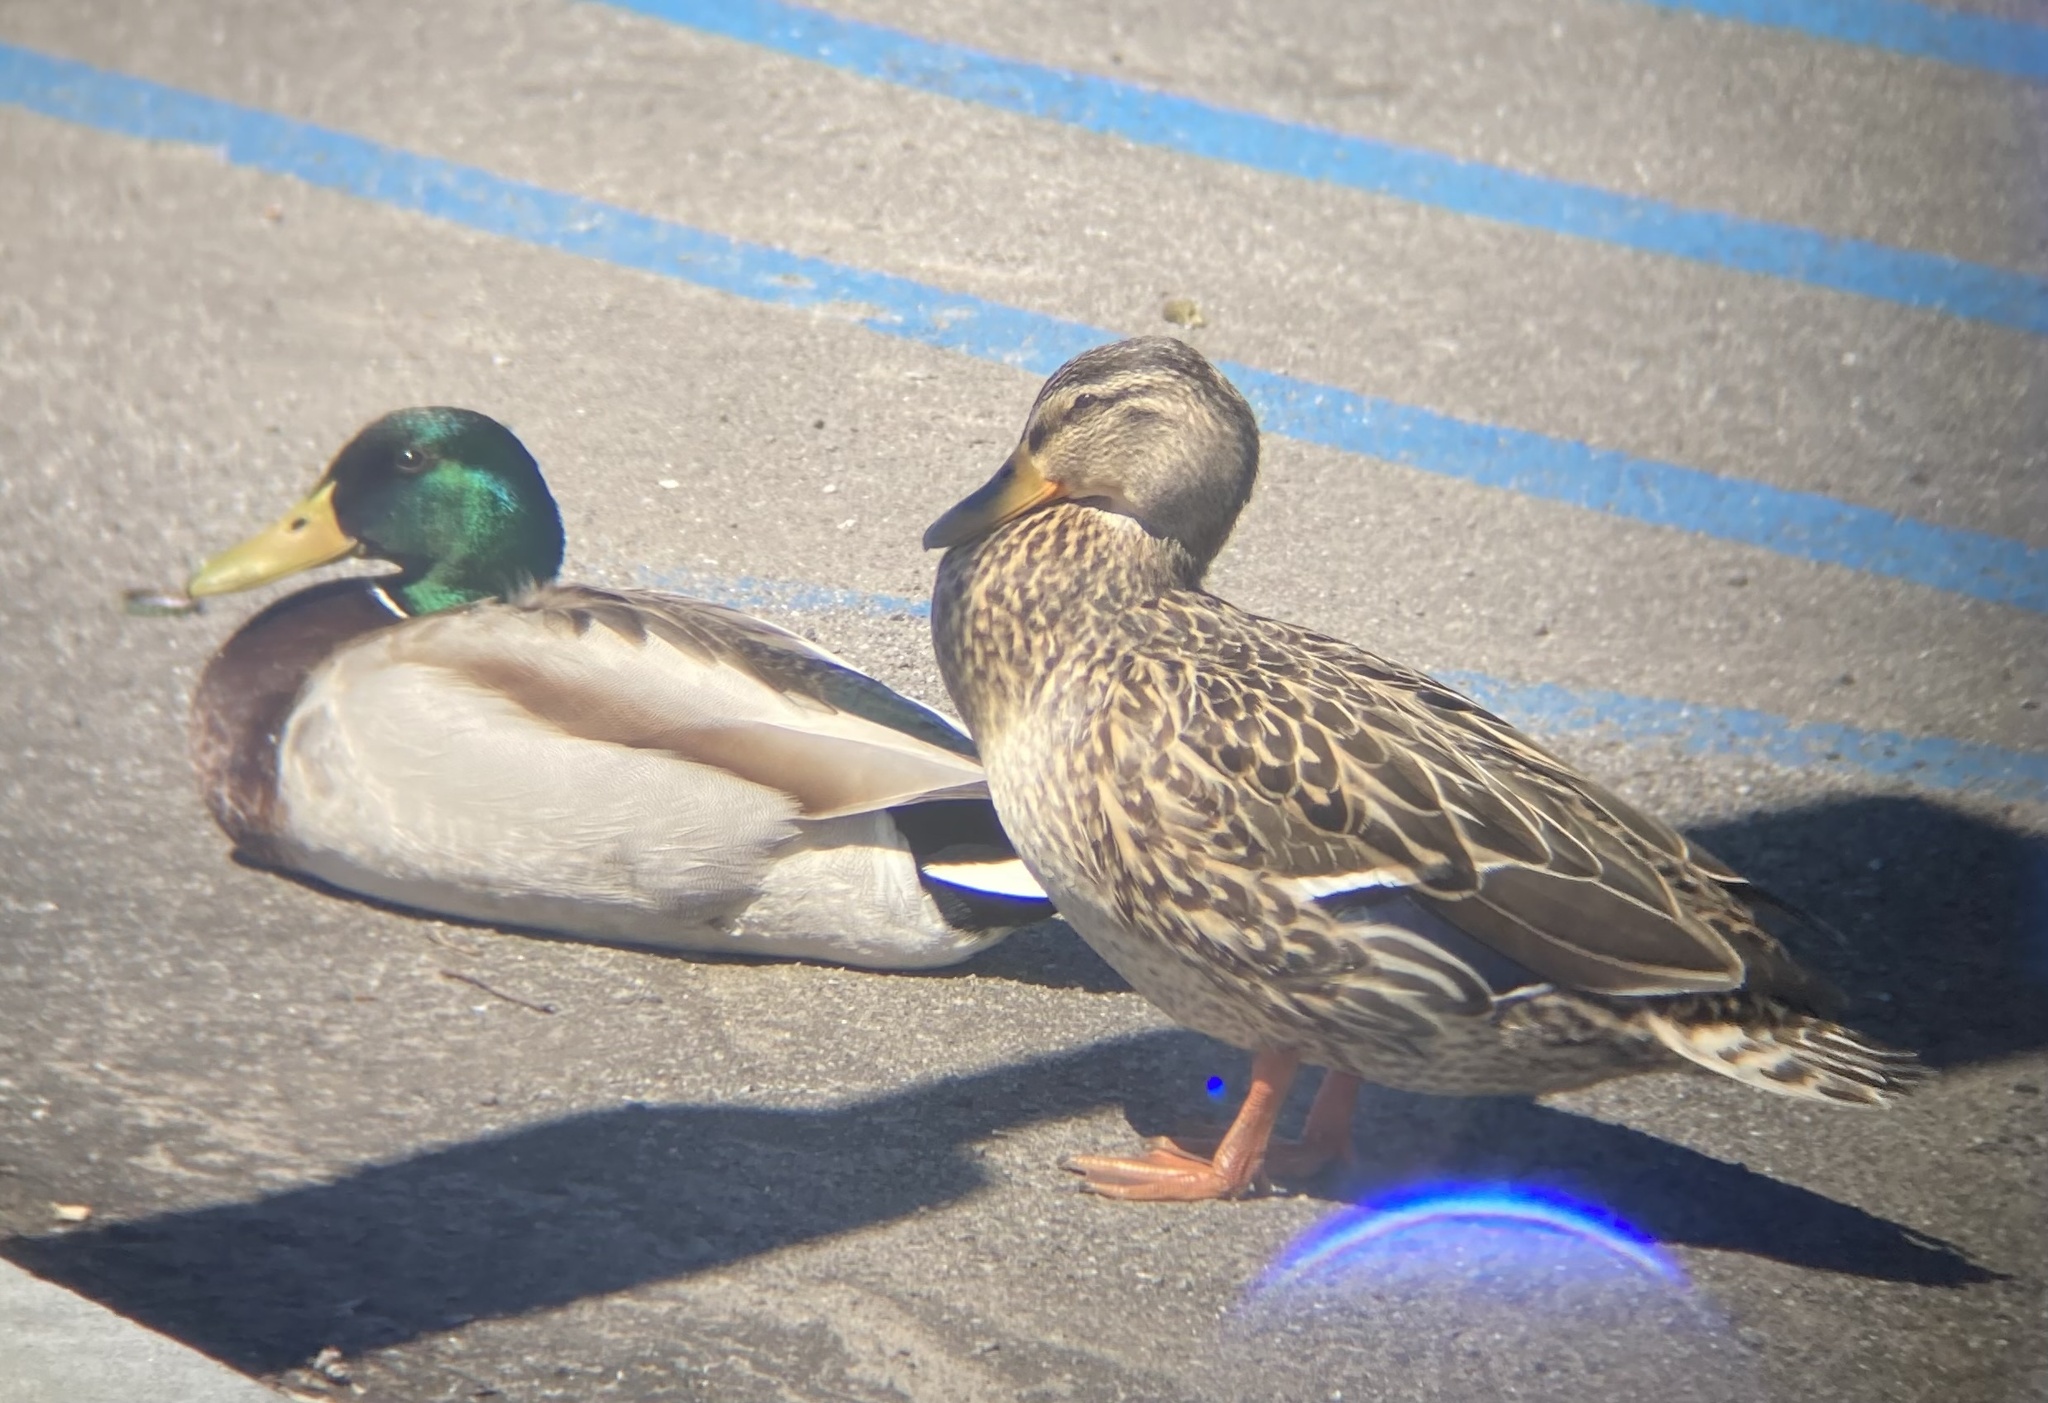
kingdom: Animalia
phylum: Chordata
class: Aves
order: Anseriformes
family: Anatidae
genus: Anas
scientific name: Anas platyrhynchos
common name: Mallard
